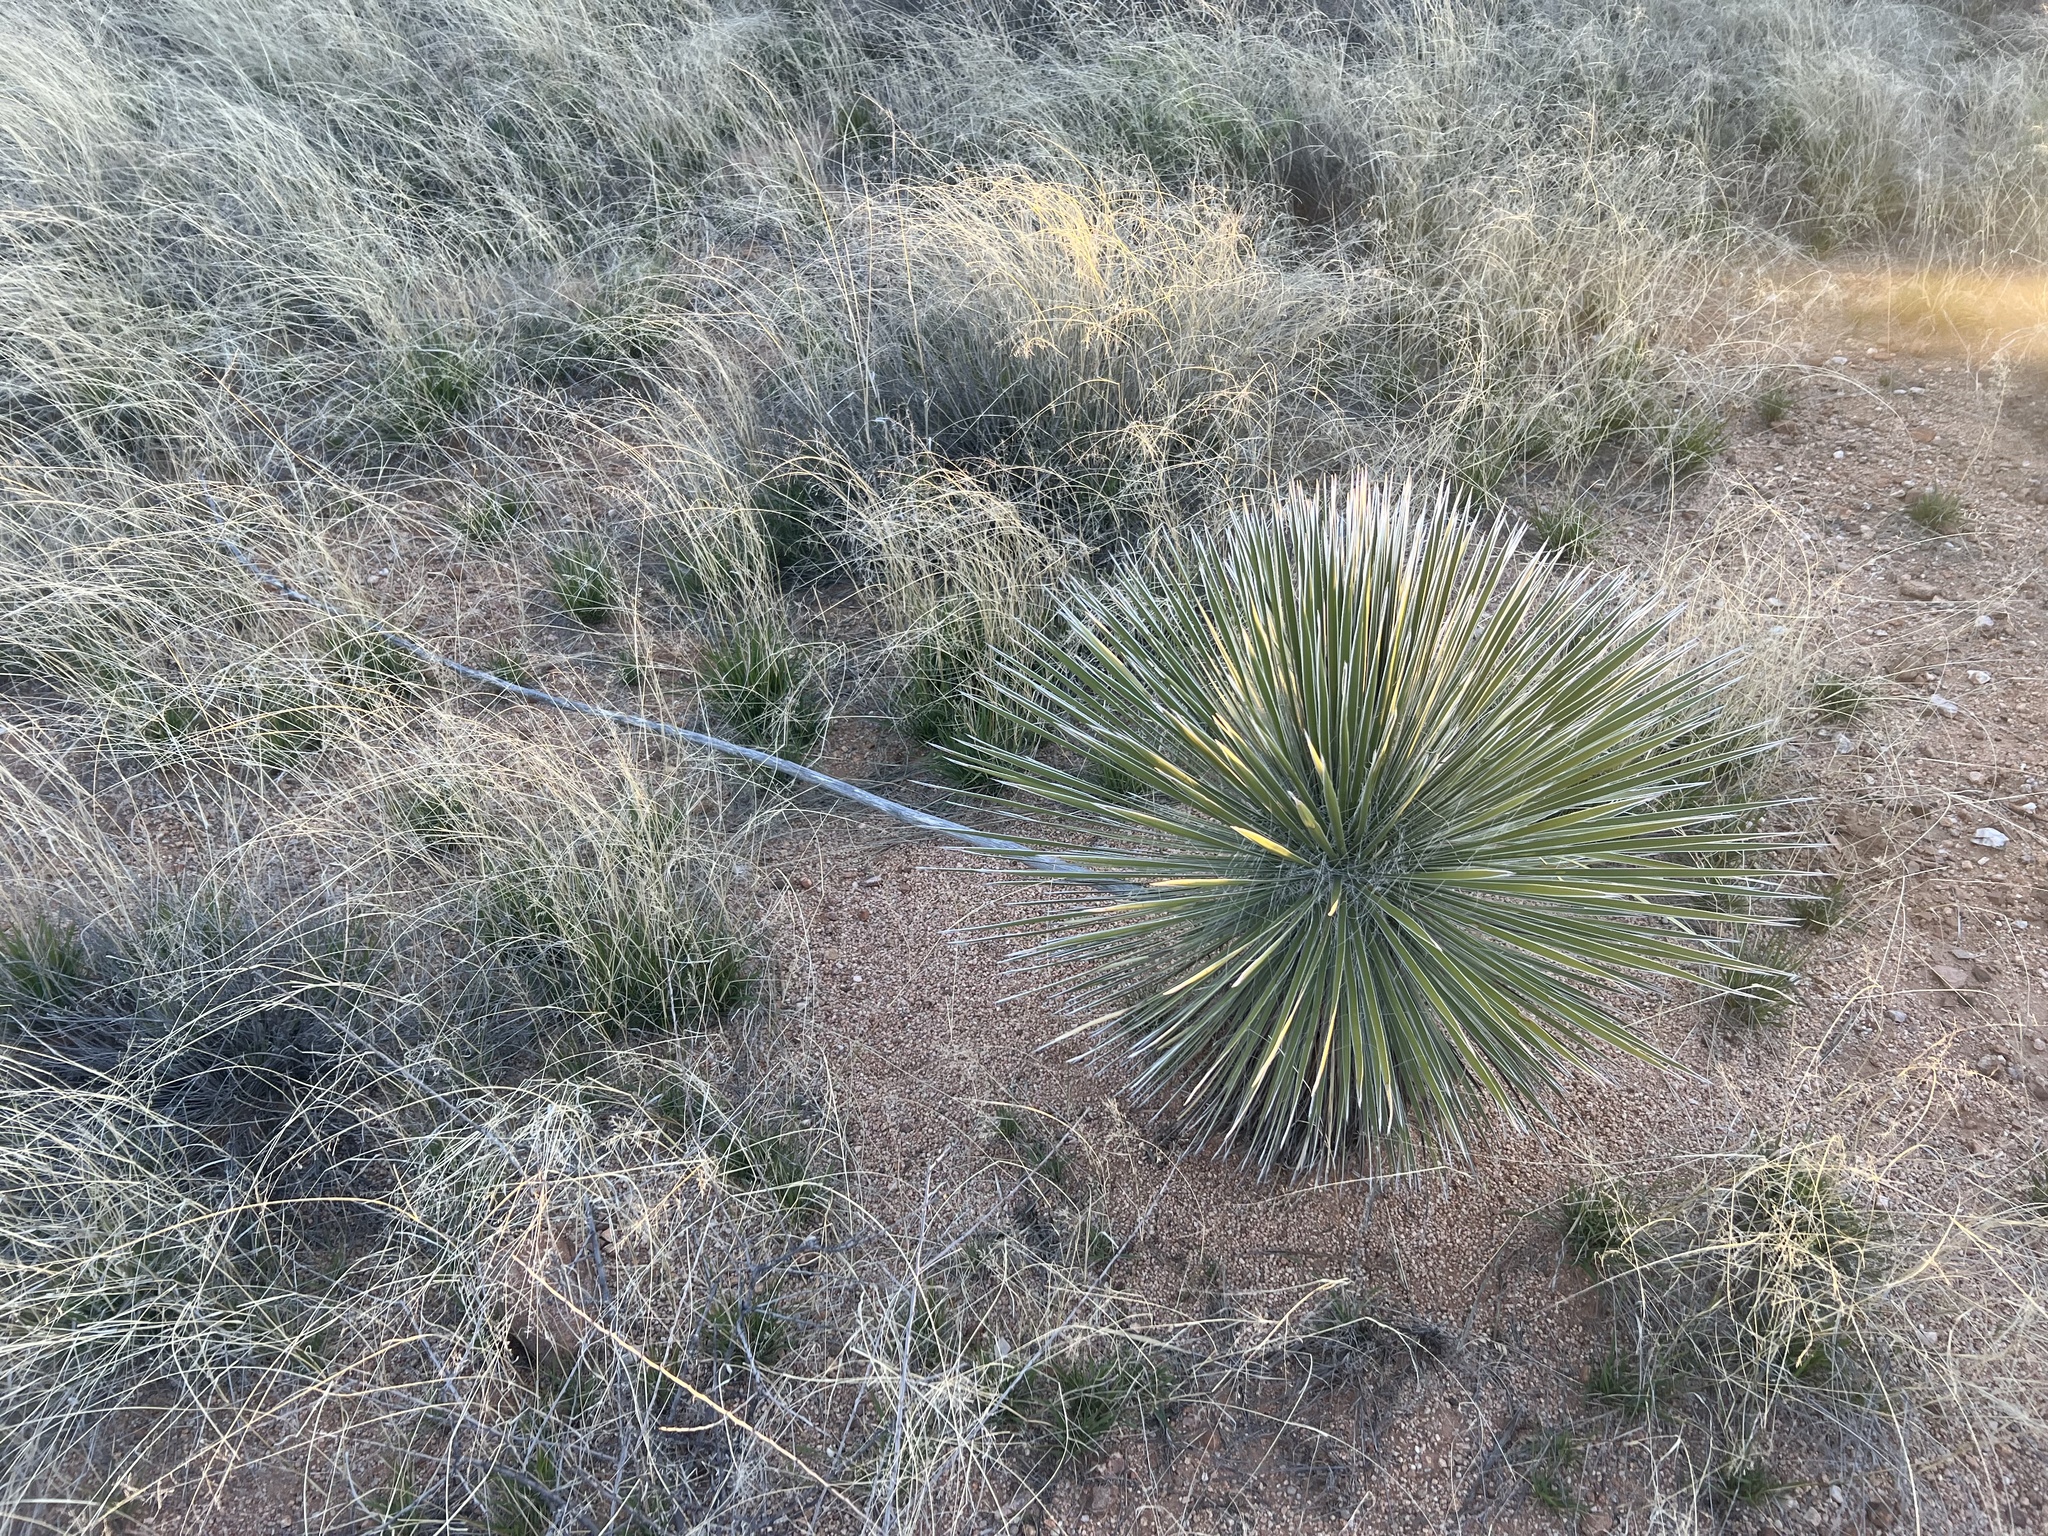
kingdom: Plantae
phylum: Tracheophyta
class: Liliopsida
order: Asparagales
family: Asparagaceae
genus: Yucca
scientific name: Yucca elata
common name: Palmella
